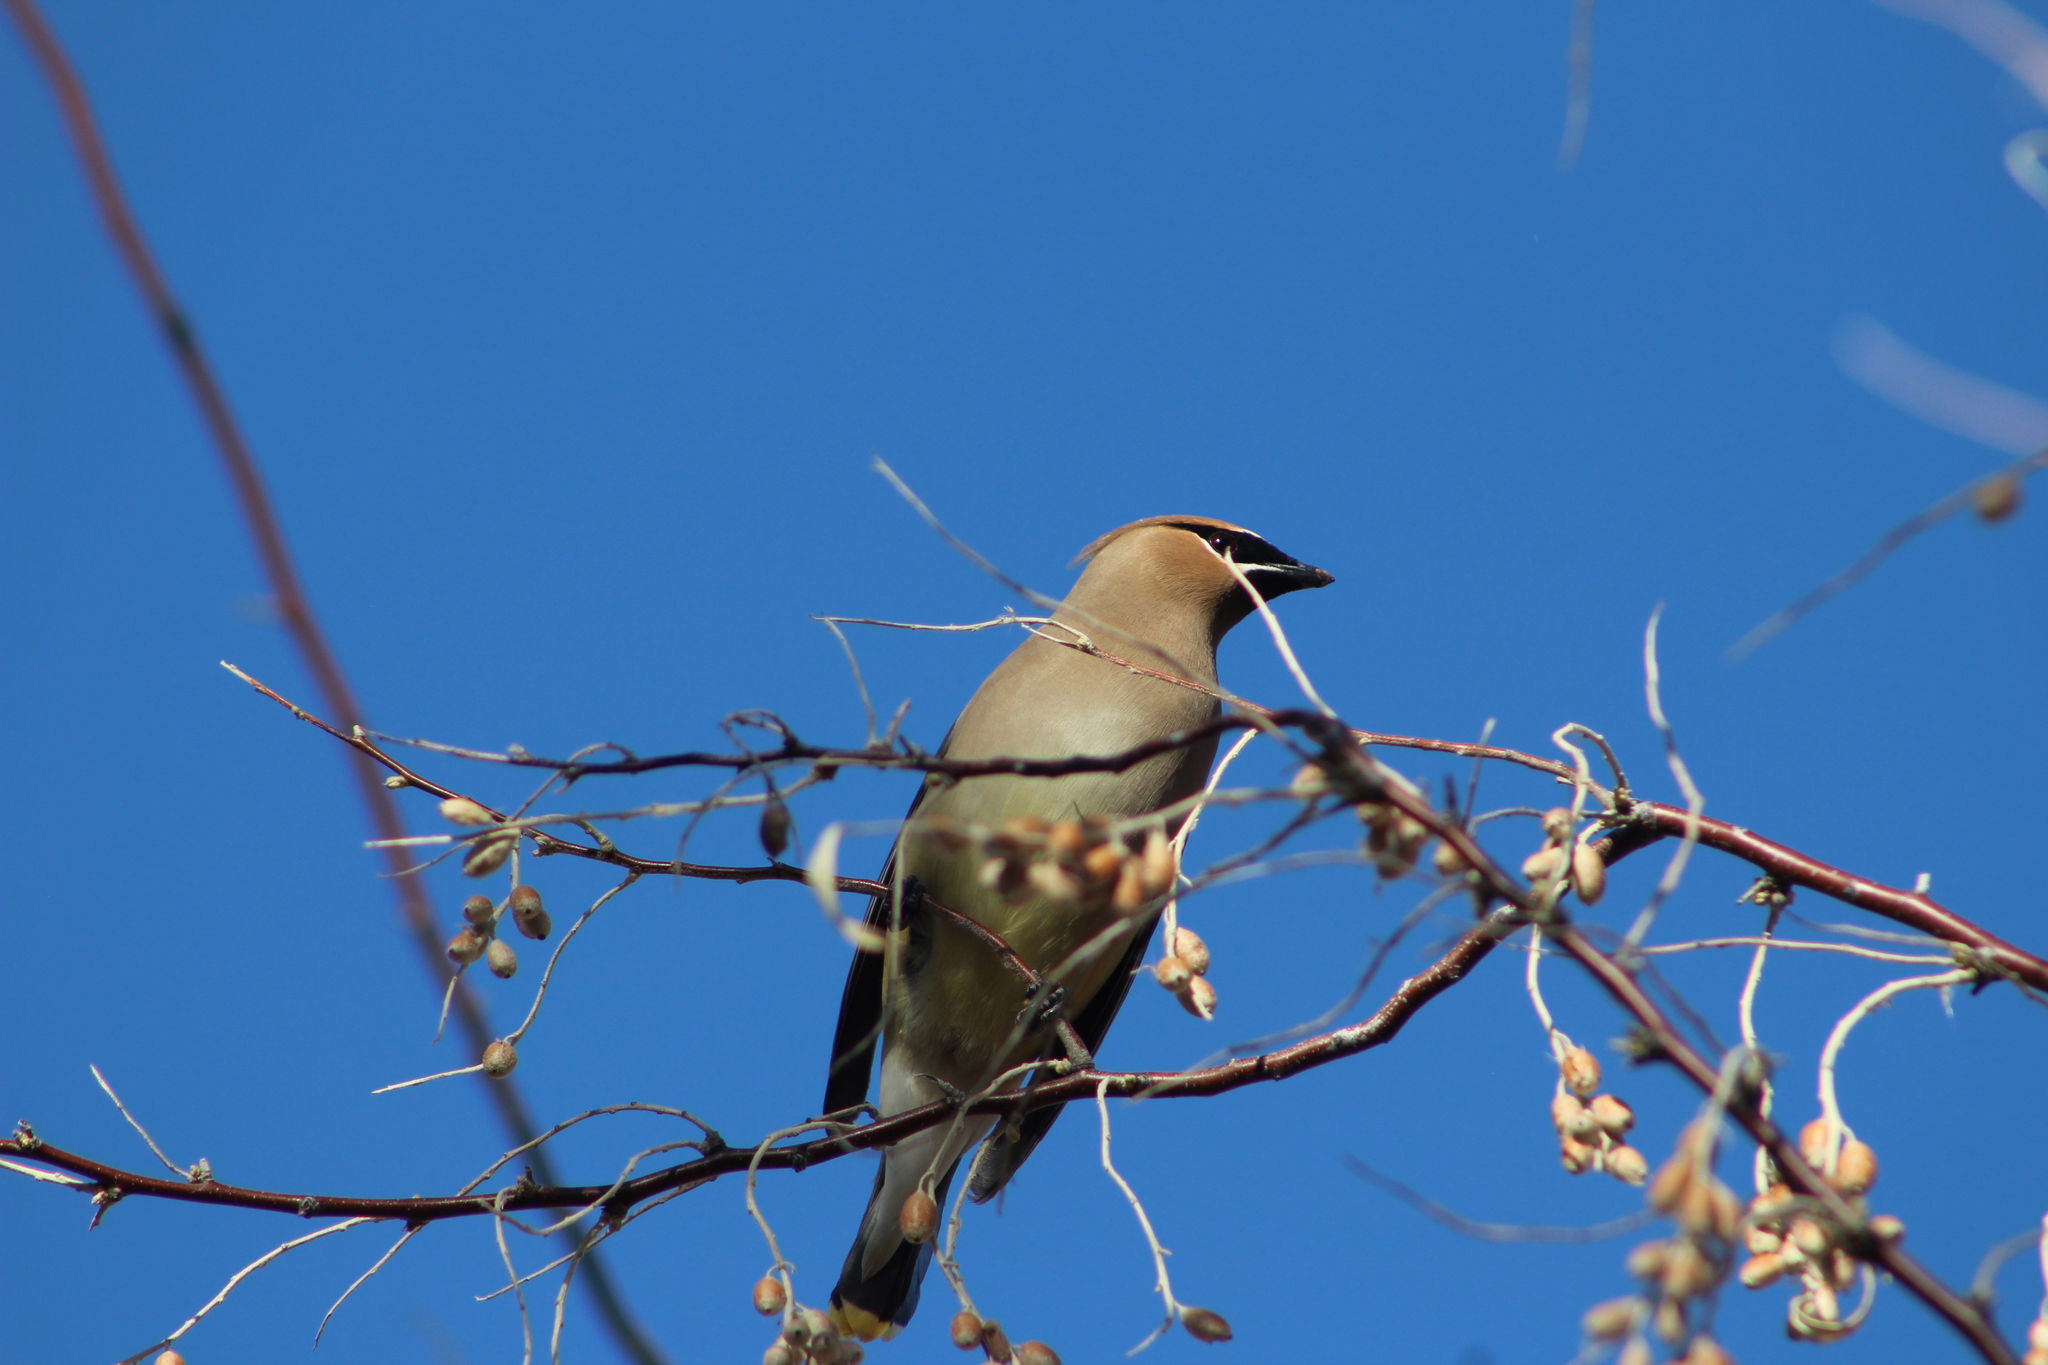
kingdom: Animalia
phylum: Chordata
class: Aves
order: Passeriformes
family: Bombycillidae
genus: Bombycilla
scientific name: Bombycilla cedrorum
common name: Cedar waxwing
